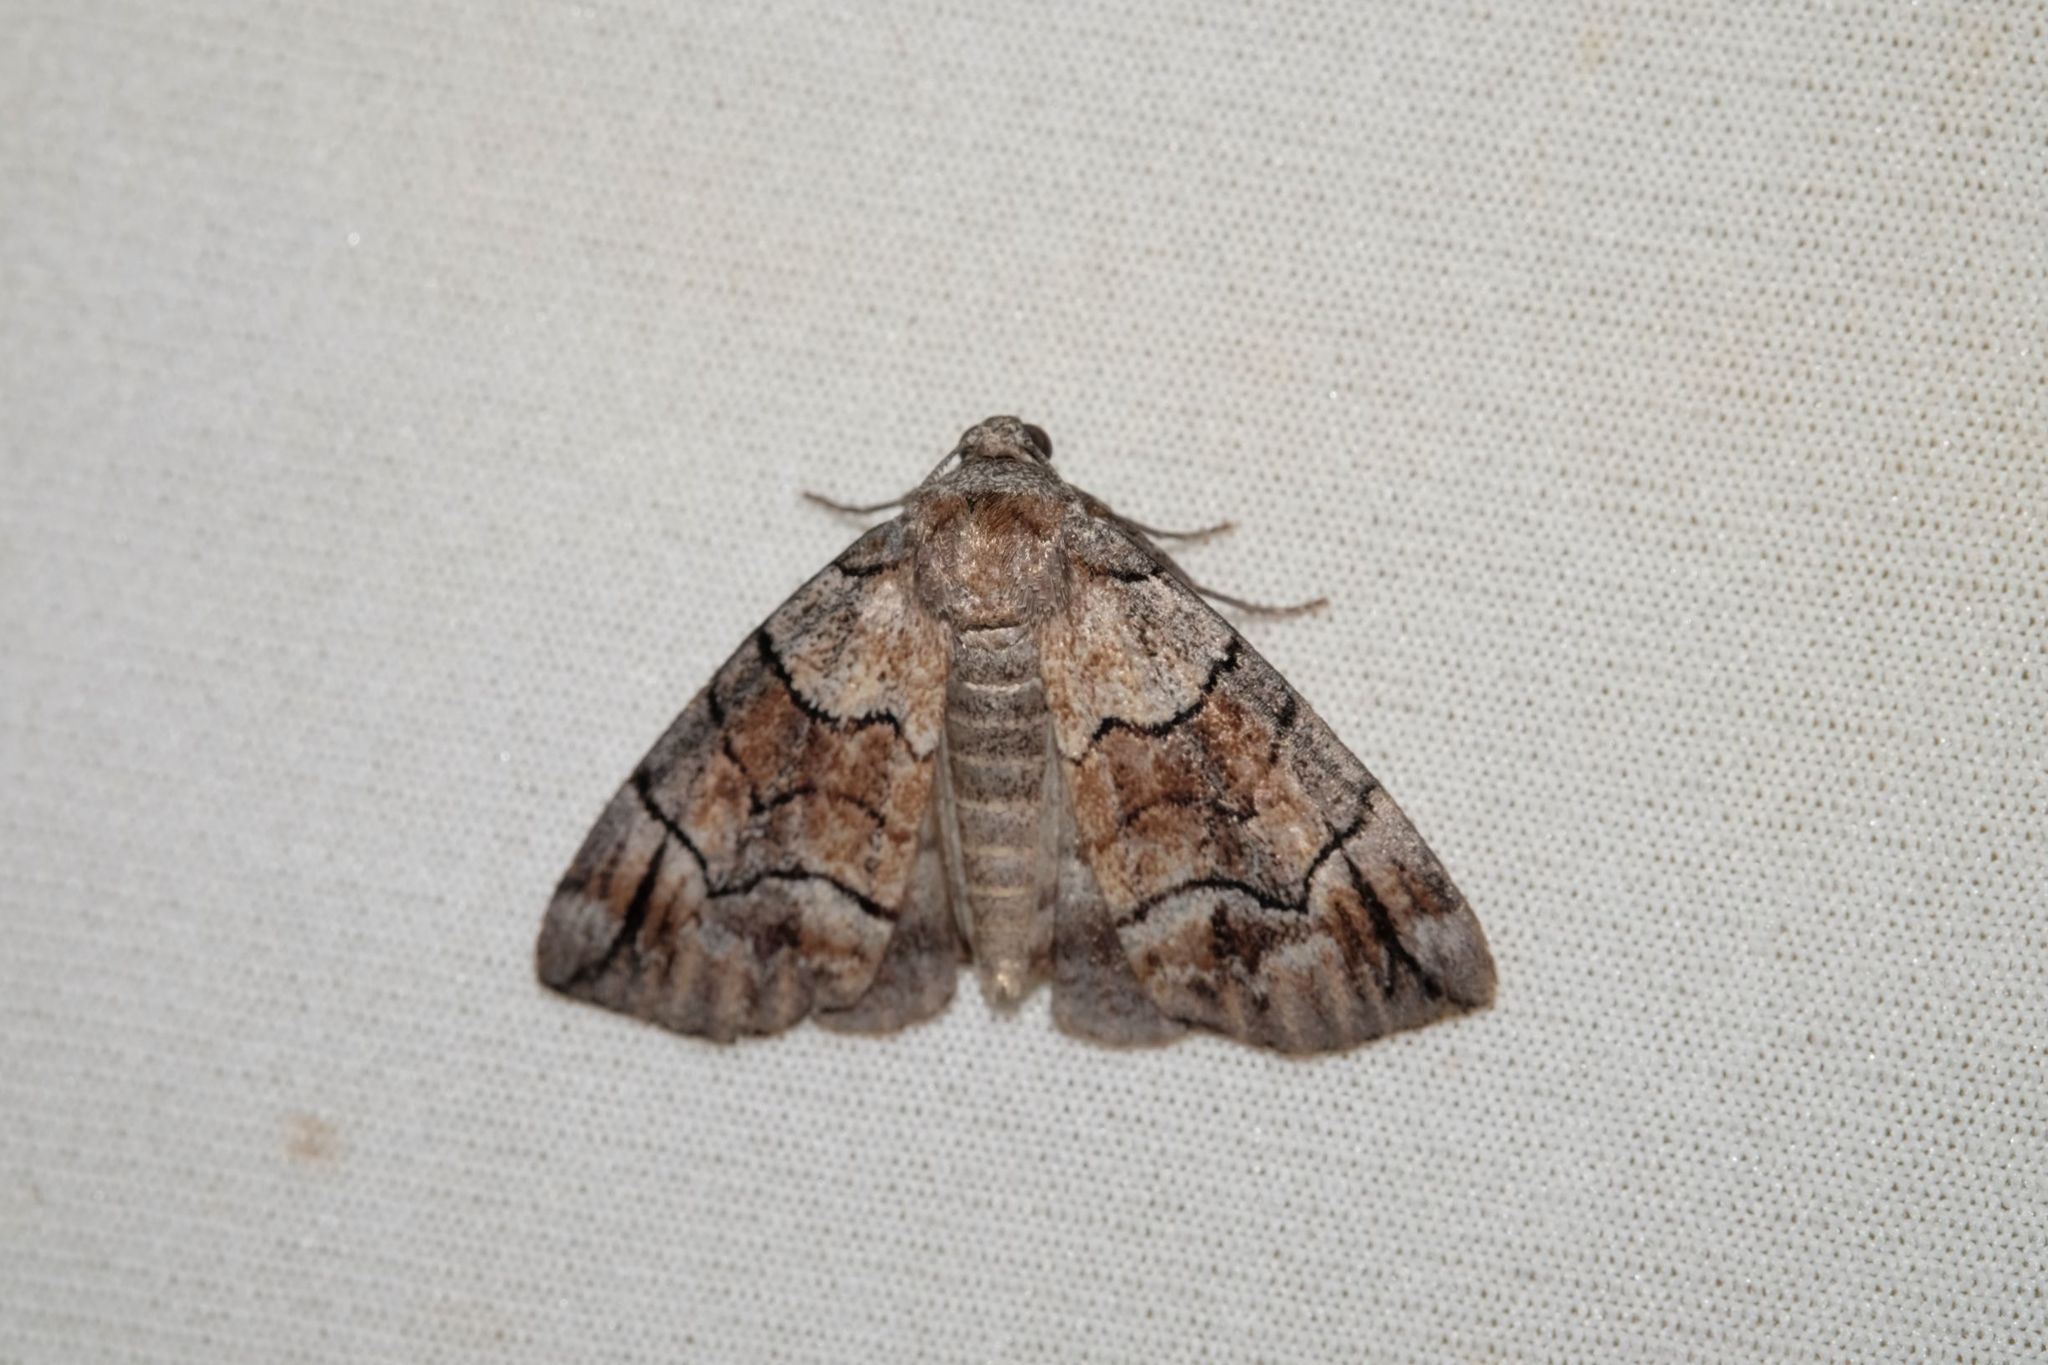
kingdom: Animalia
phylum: Arthropoda
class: Insecta
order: Lepidoptera
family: Geometridae
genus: Dysbatus
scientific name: Dysbatus
